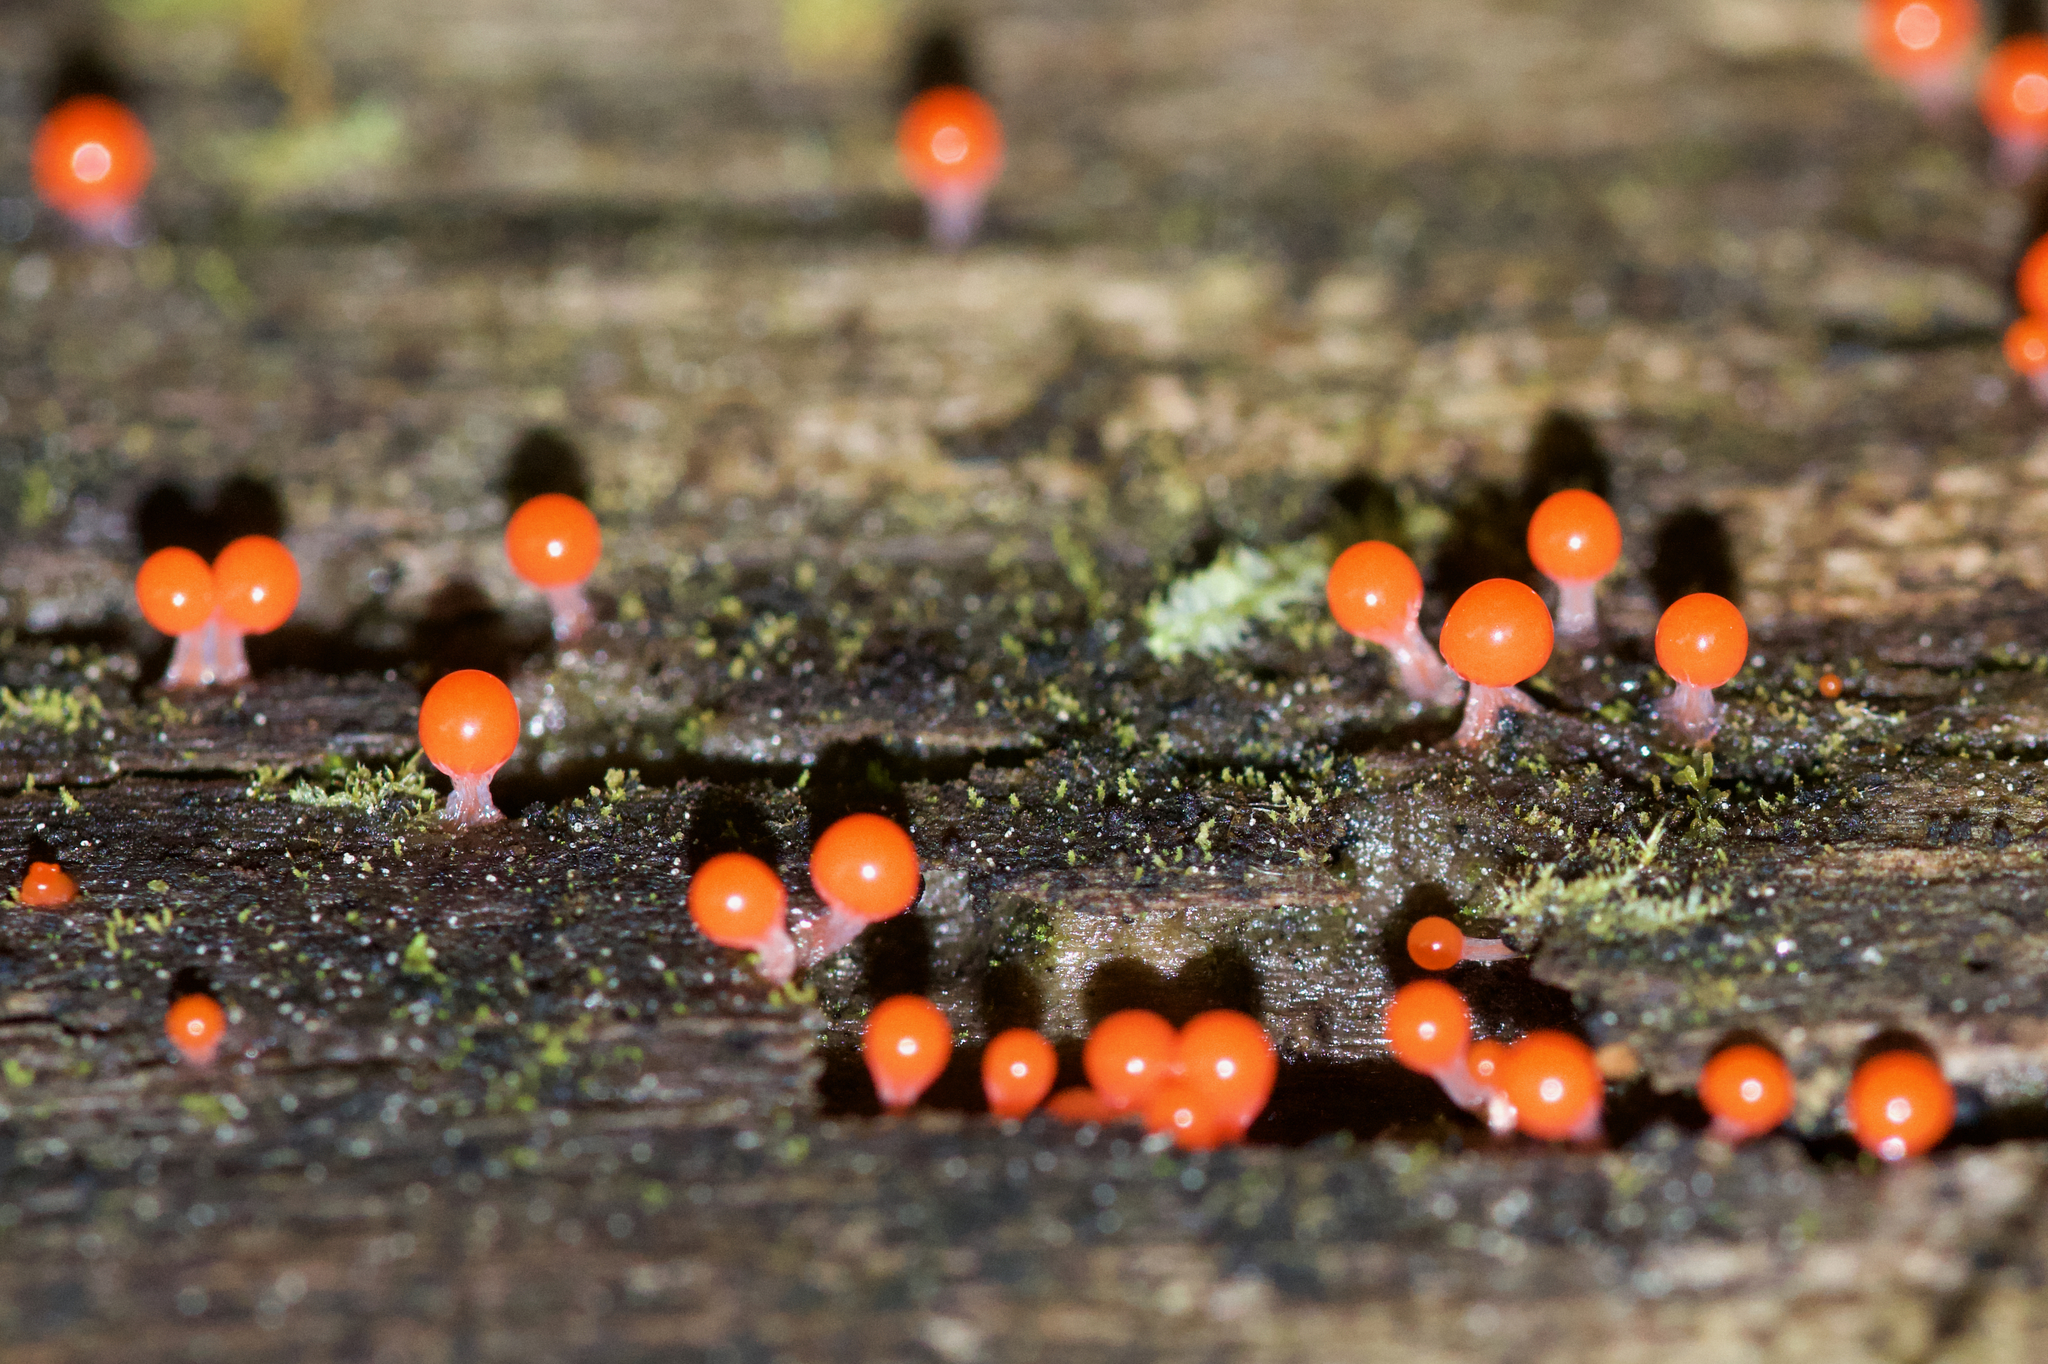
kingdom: Protozoa
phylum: Mycetozoa
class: Myxomycetes
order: Trichiales
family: Arcyriaceae
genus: Hemitrichia
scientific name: Hemitrichia decipiens
